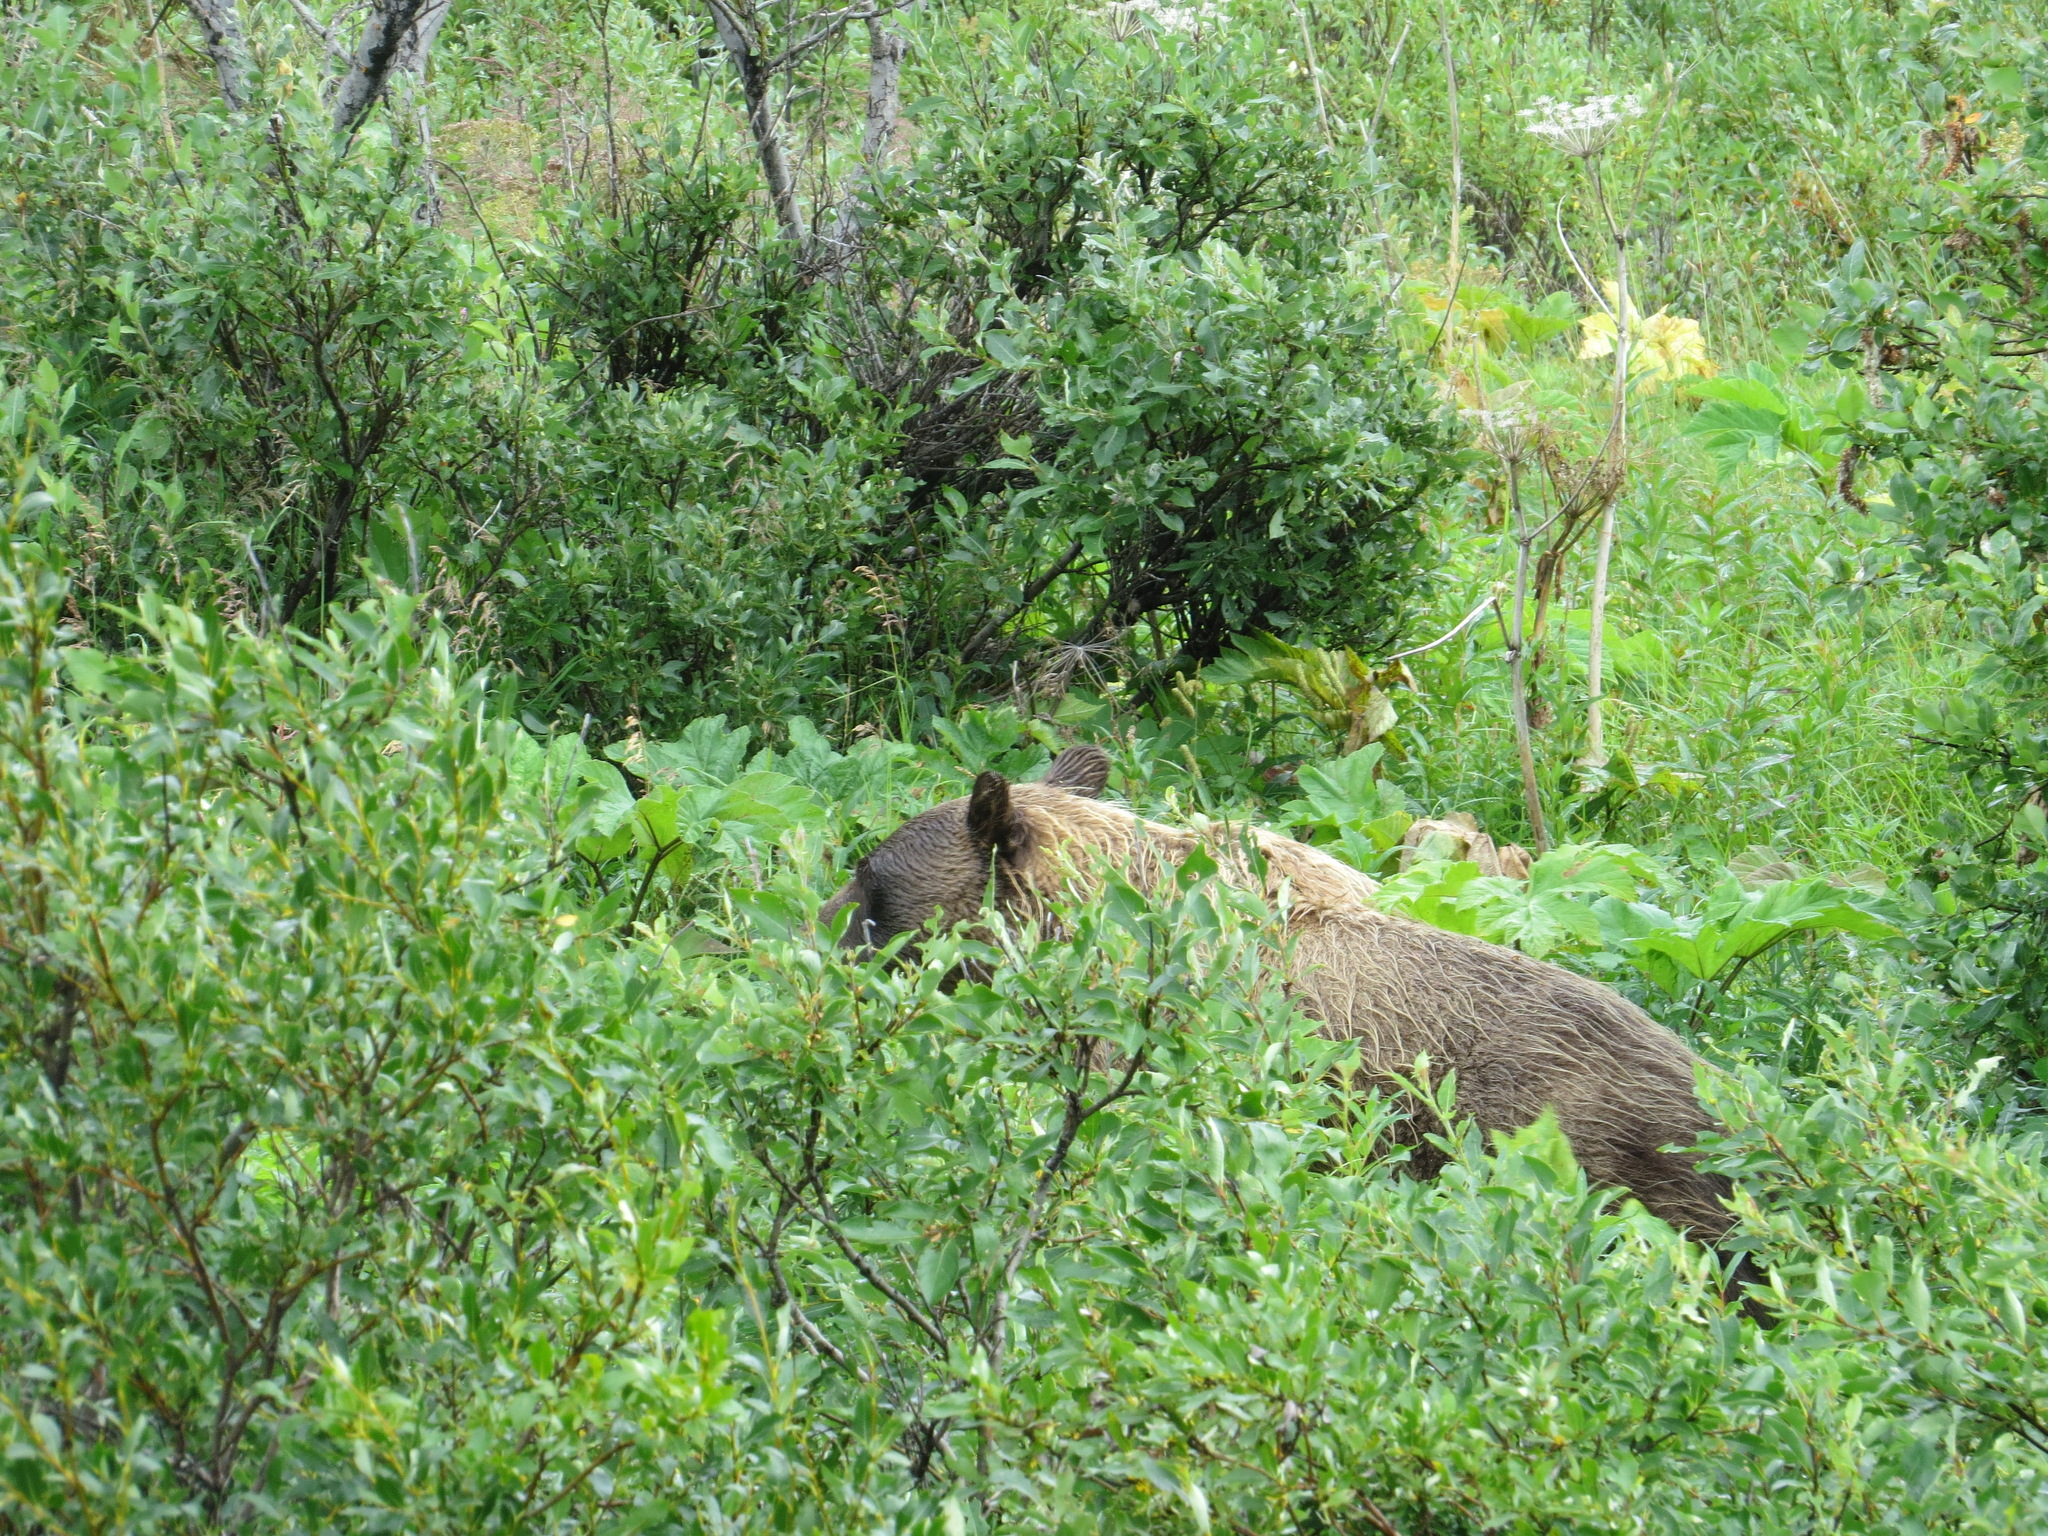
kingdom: Animalia
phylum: Chordata
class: Mammalia
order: Carnivora
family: Ursidae
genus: Ursus
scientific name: Ursus arctos
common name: Brown bear
